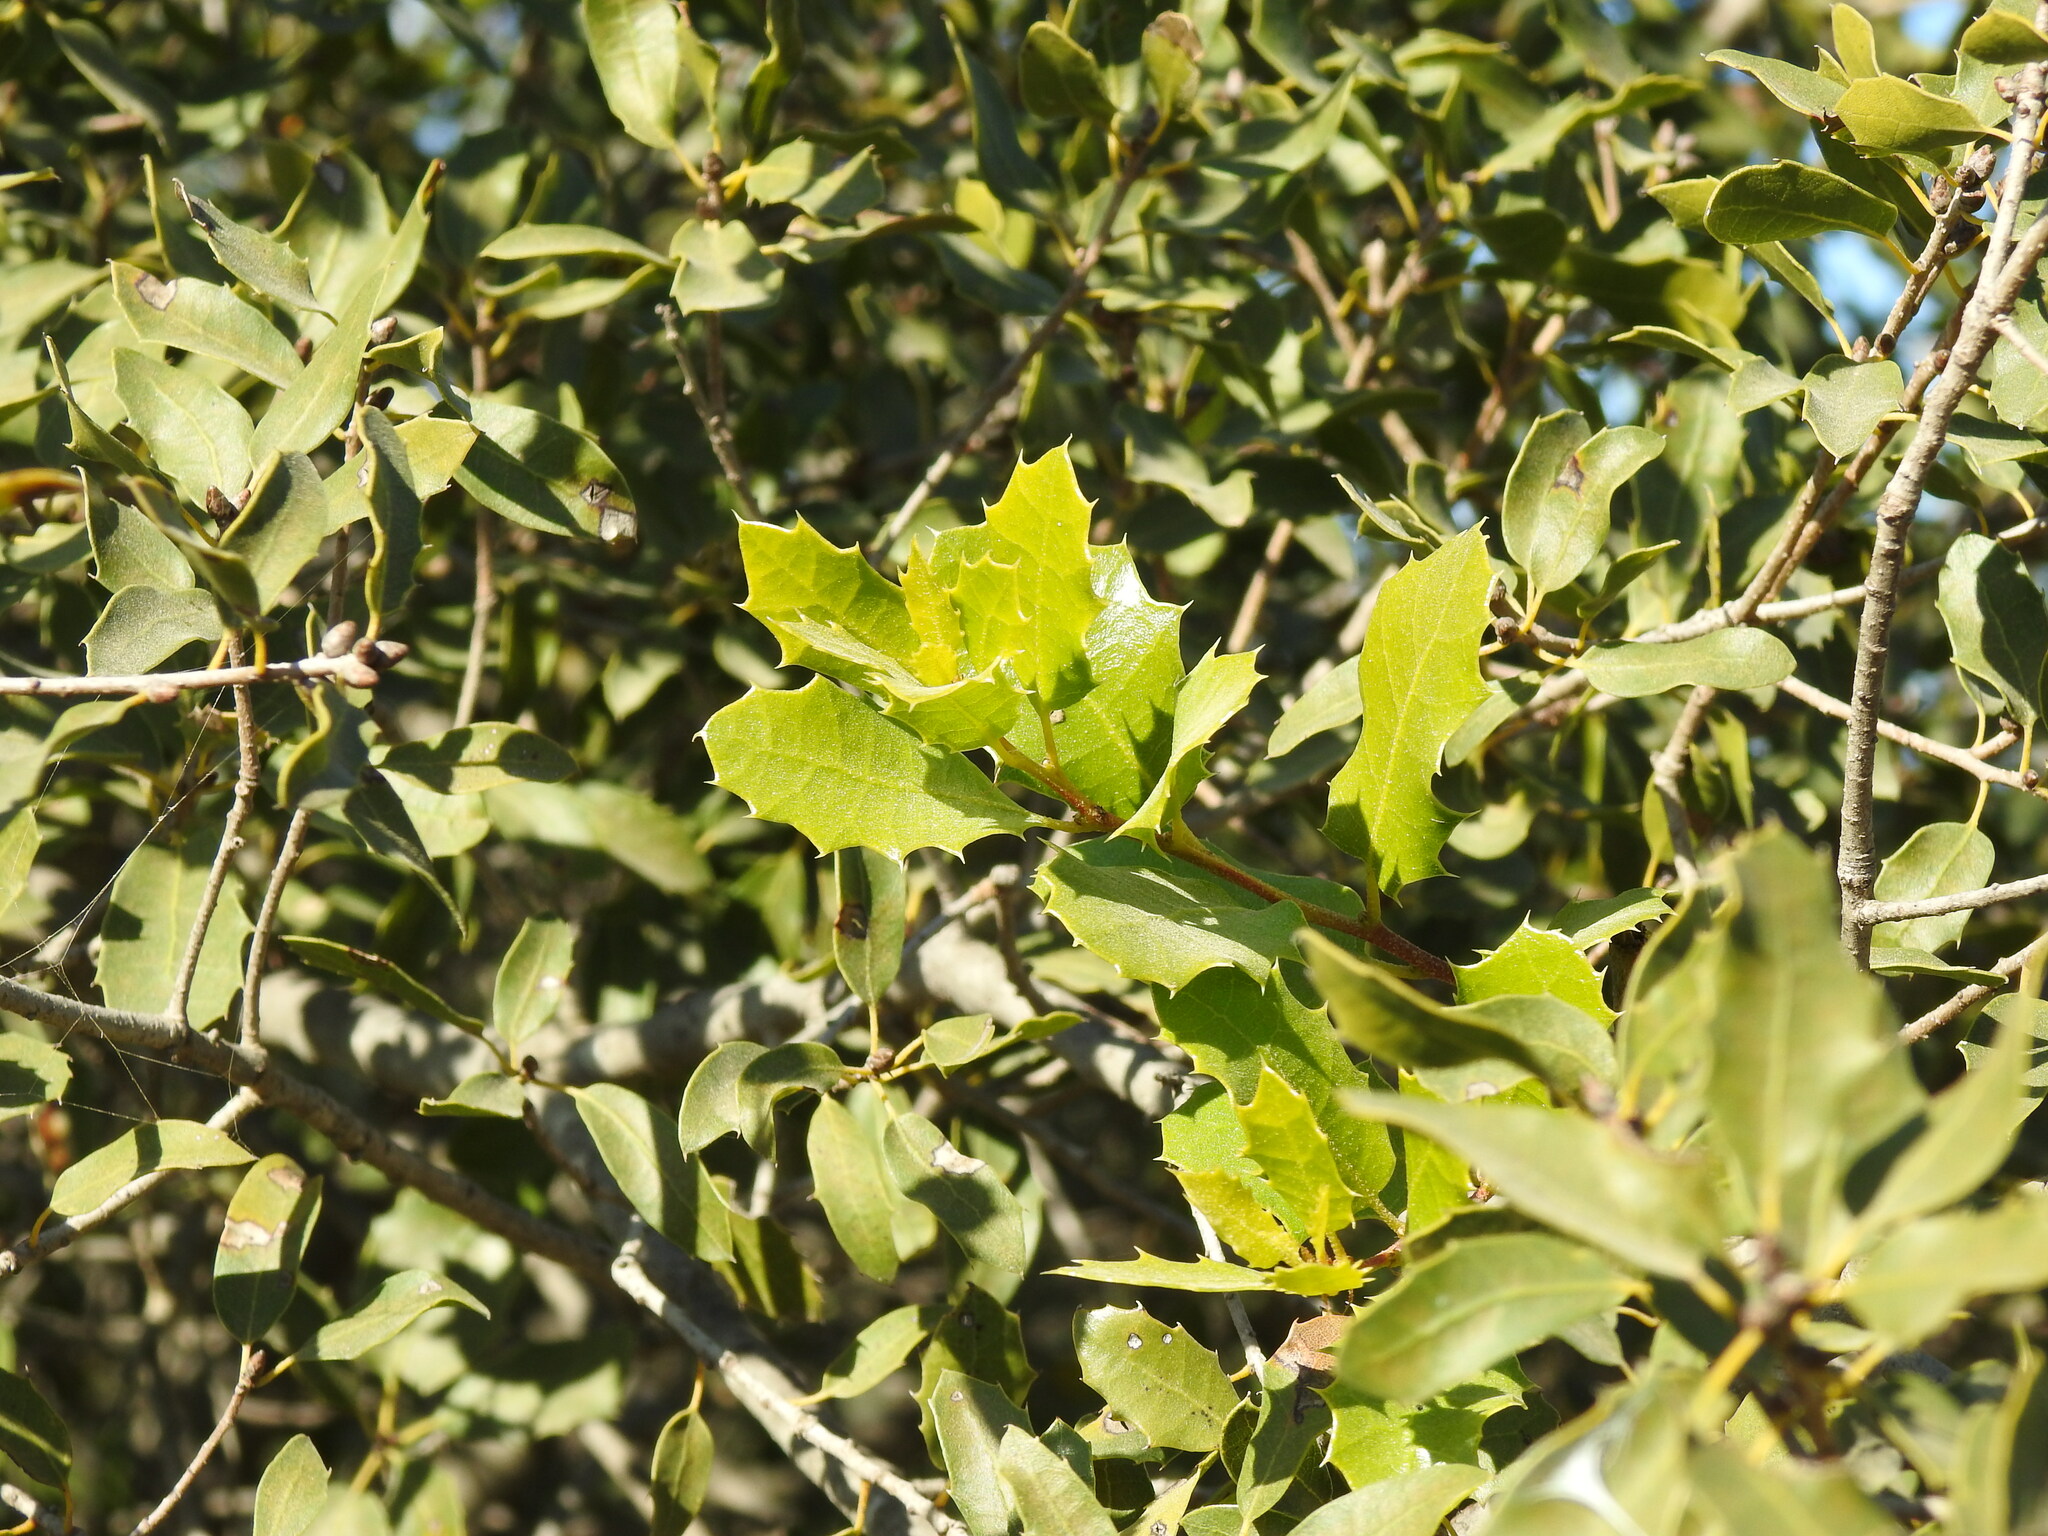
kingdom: Plantae
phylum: Tracheophyta
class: Magnoliopsida
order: Fagales
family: Fagaceae
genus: Quercus
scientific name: Quercus coccifera
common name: Kermes oak
